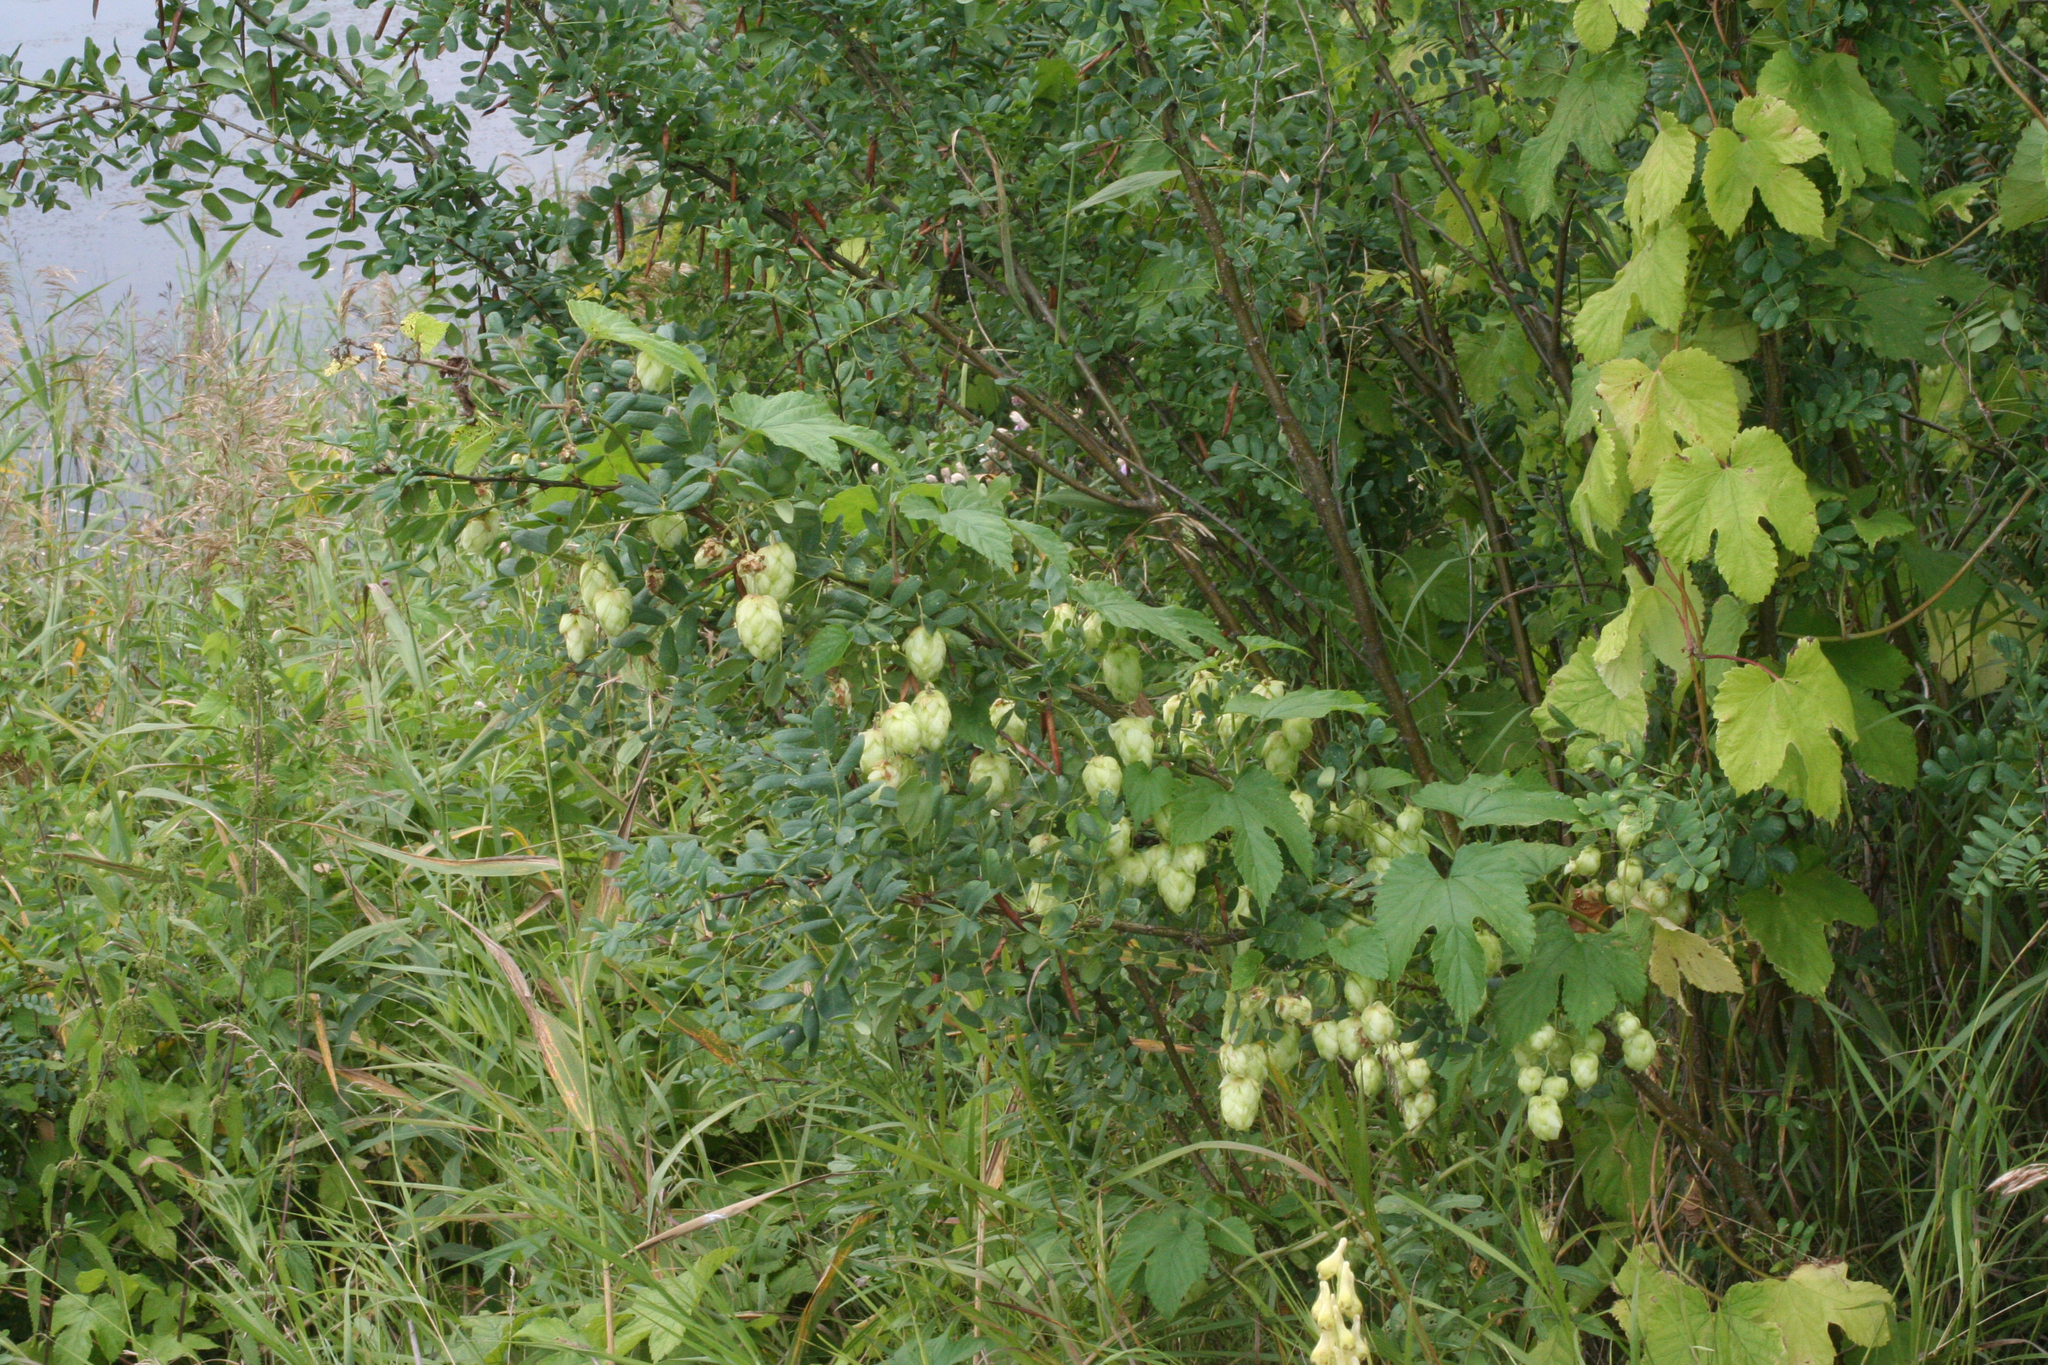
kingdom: Plantae
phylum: Tracheophyta
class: Magnoliopsida
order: Rosales
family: Cannabaceae
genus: Humulus
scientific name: Humulus lupulus
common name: Hop
